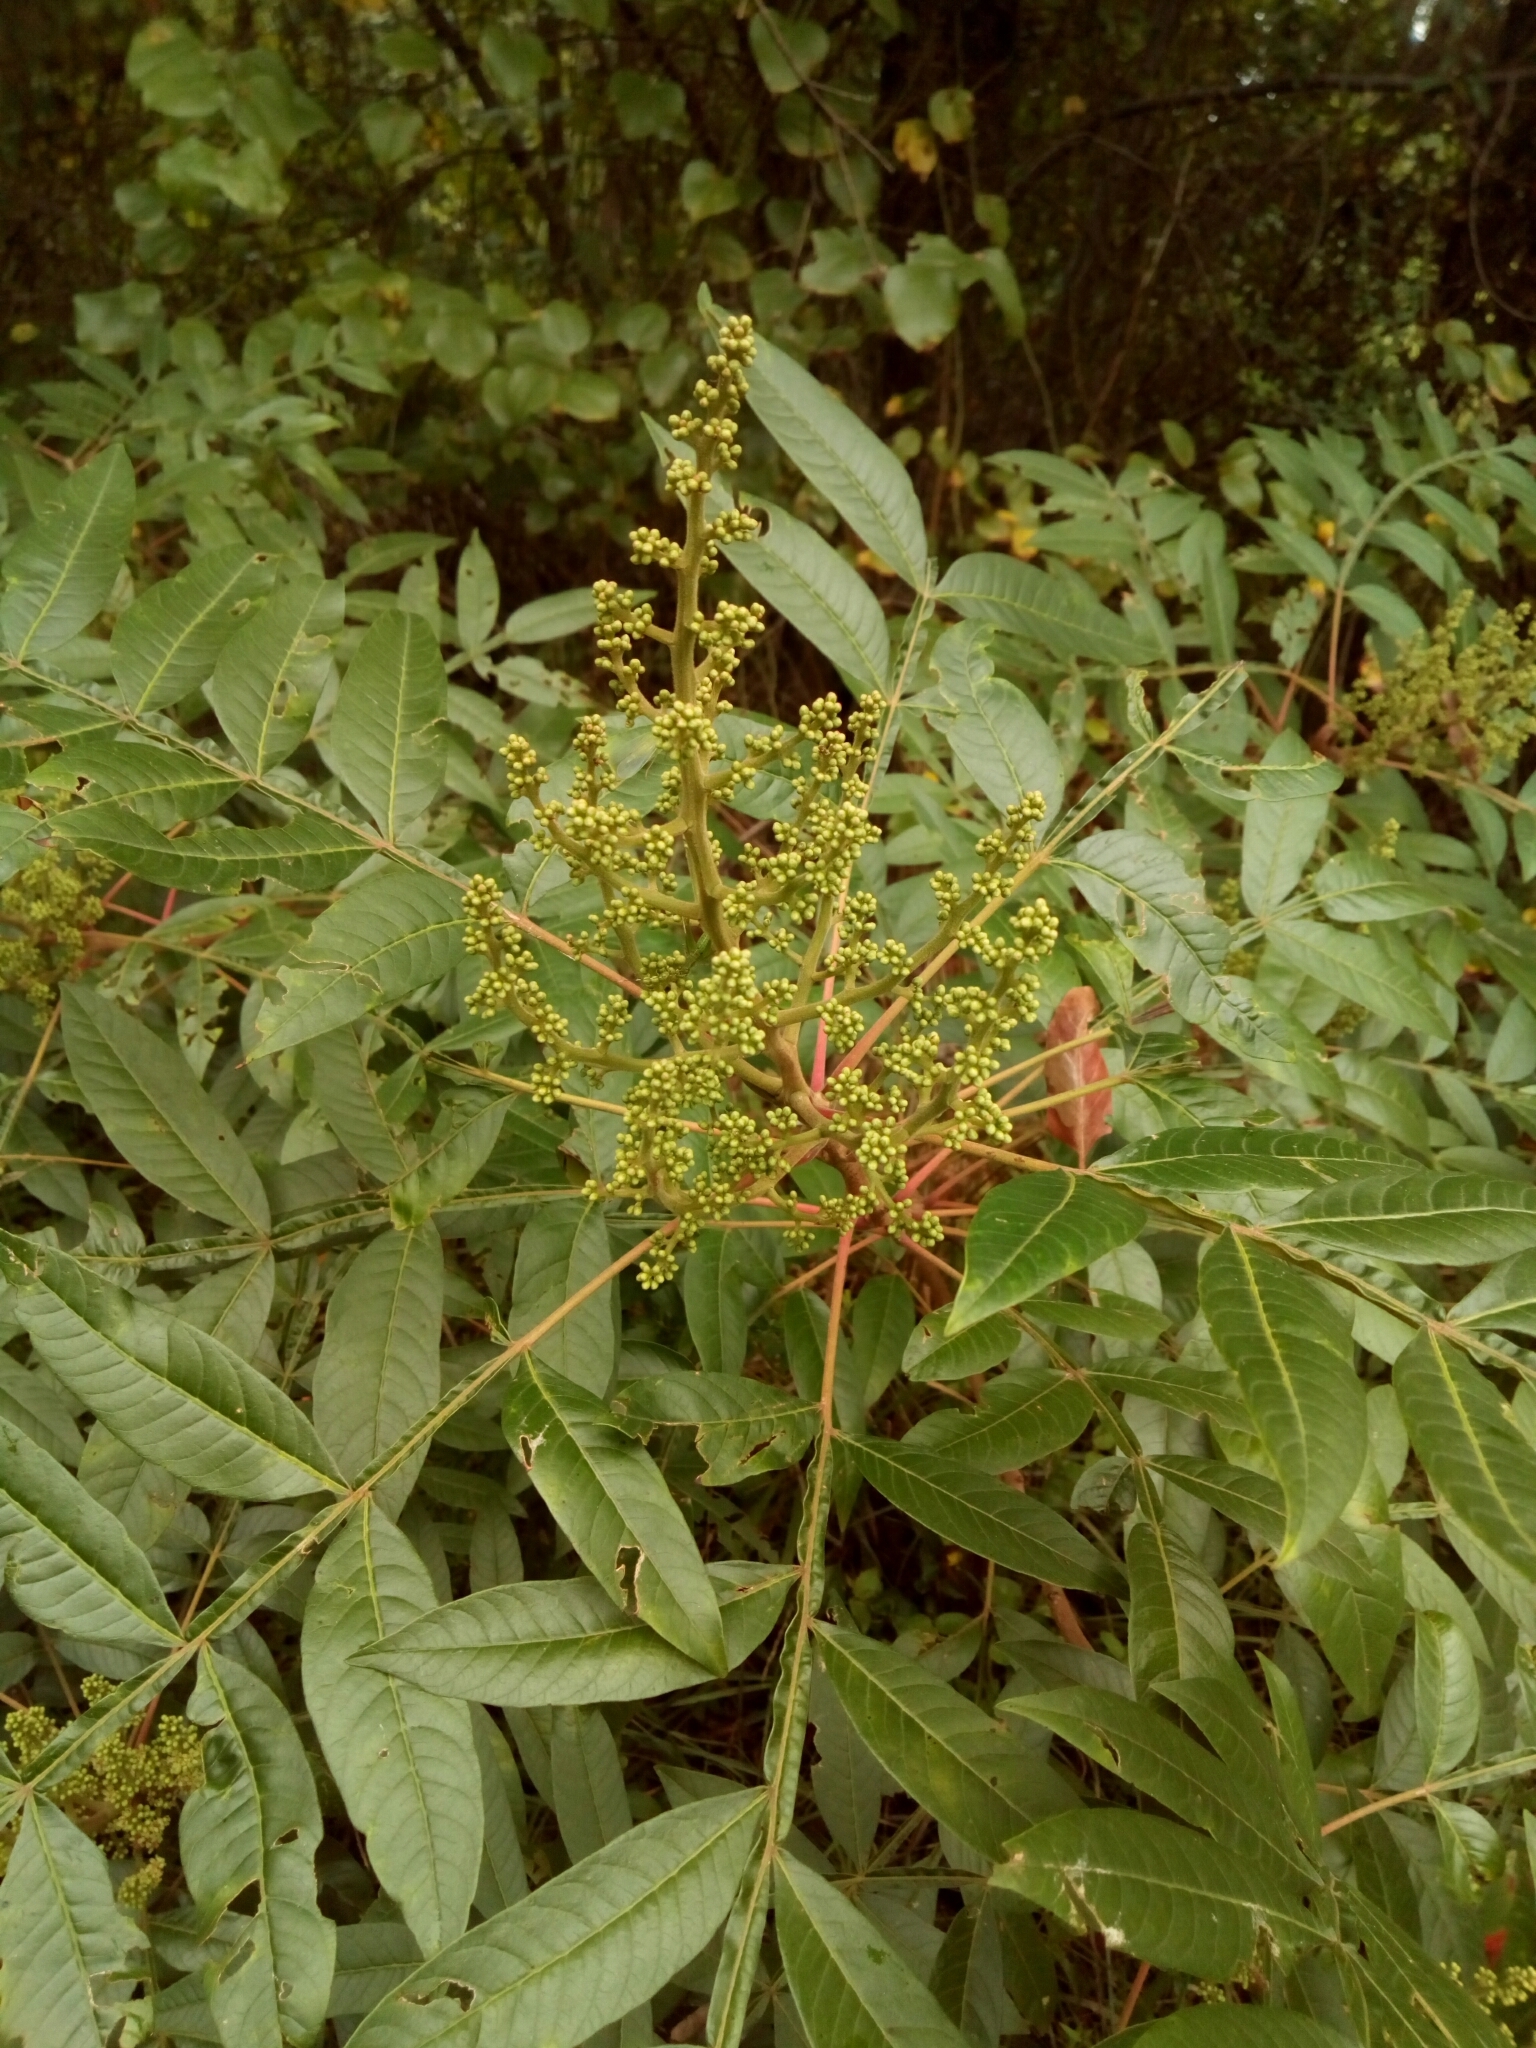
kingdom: Plantae
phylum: Tracheophyta
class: Magnoliopsida
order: Sapindales
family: Anacardiaceae
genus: Rhus
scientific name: Rhus copallina
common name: Shining sumac
